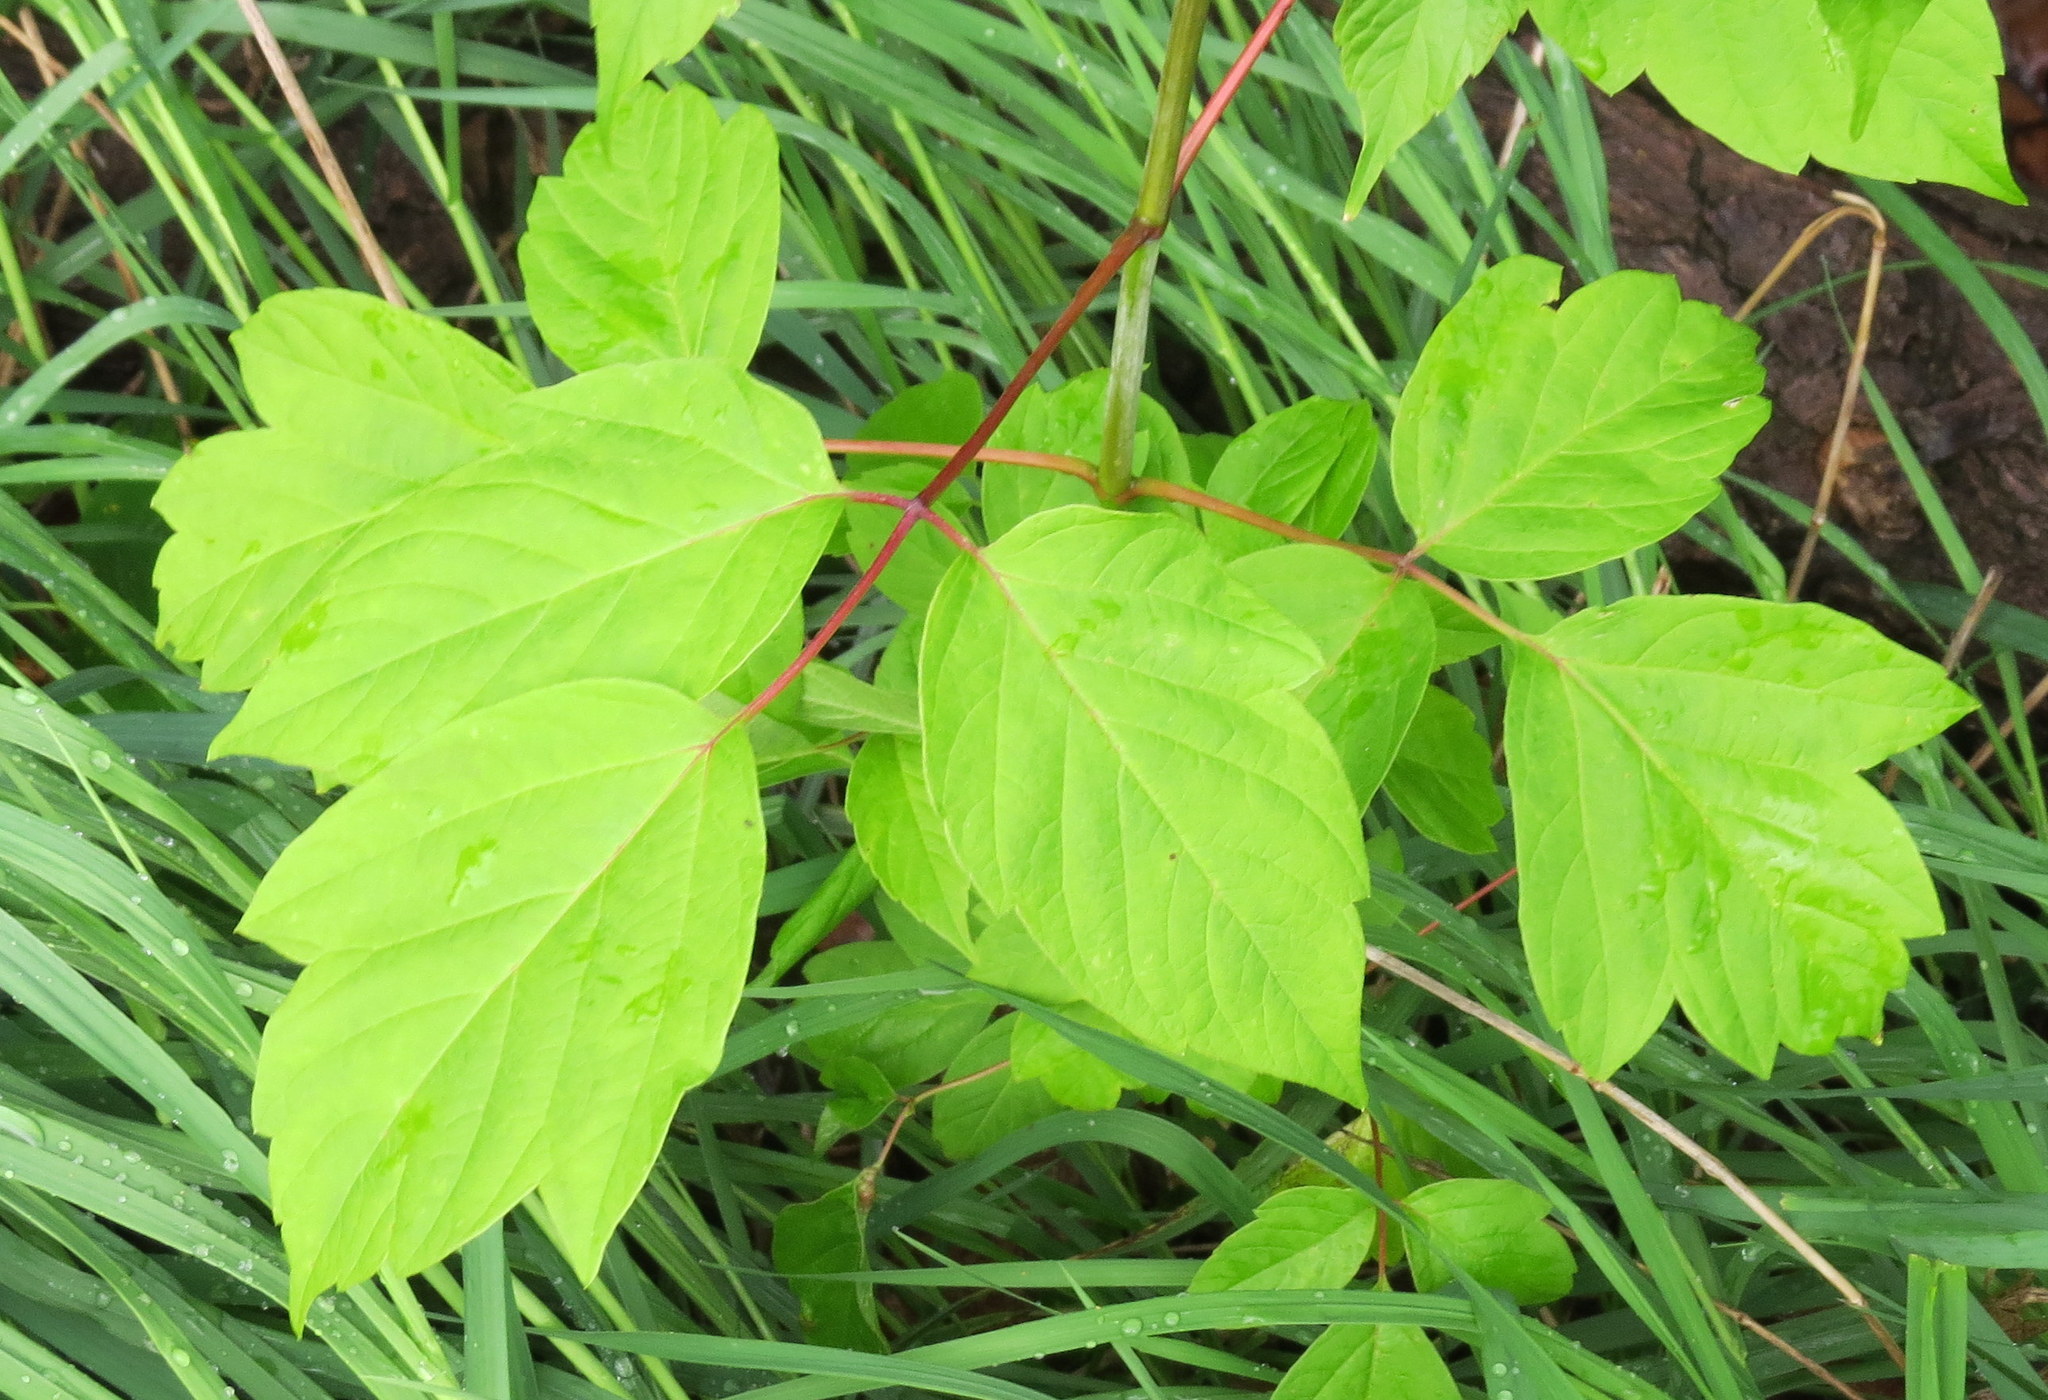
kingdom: Plantae
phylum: Tracheophyta
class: Magnoliopsida
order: Sapindales
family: Sapindaceae
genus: Acer
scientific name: Acer negundo
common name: Ashleaf maple
